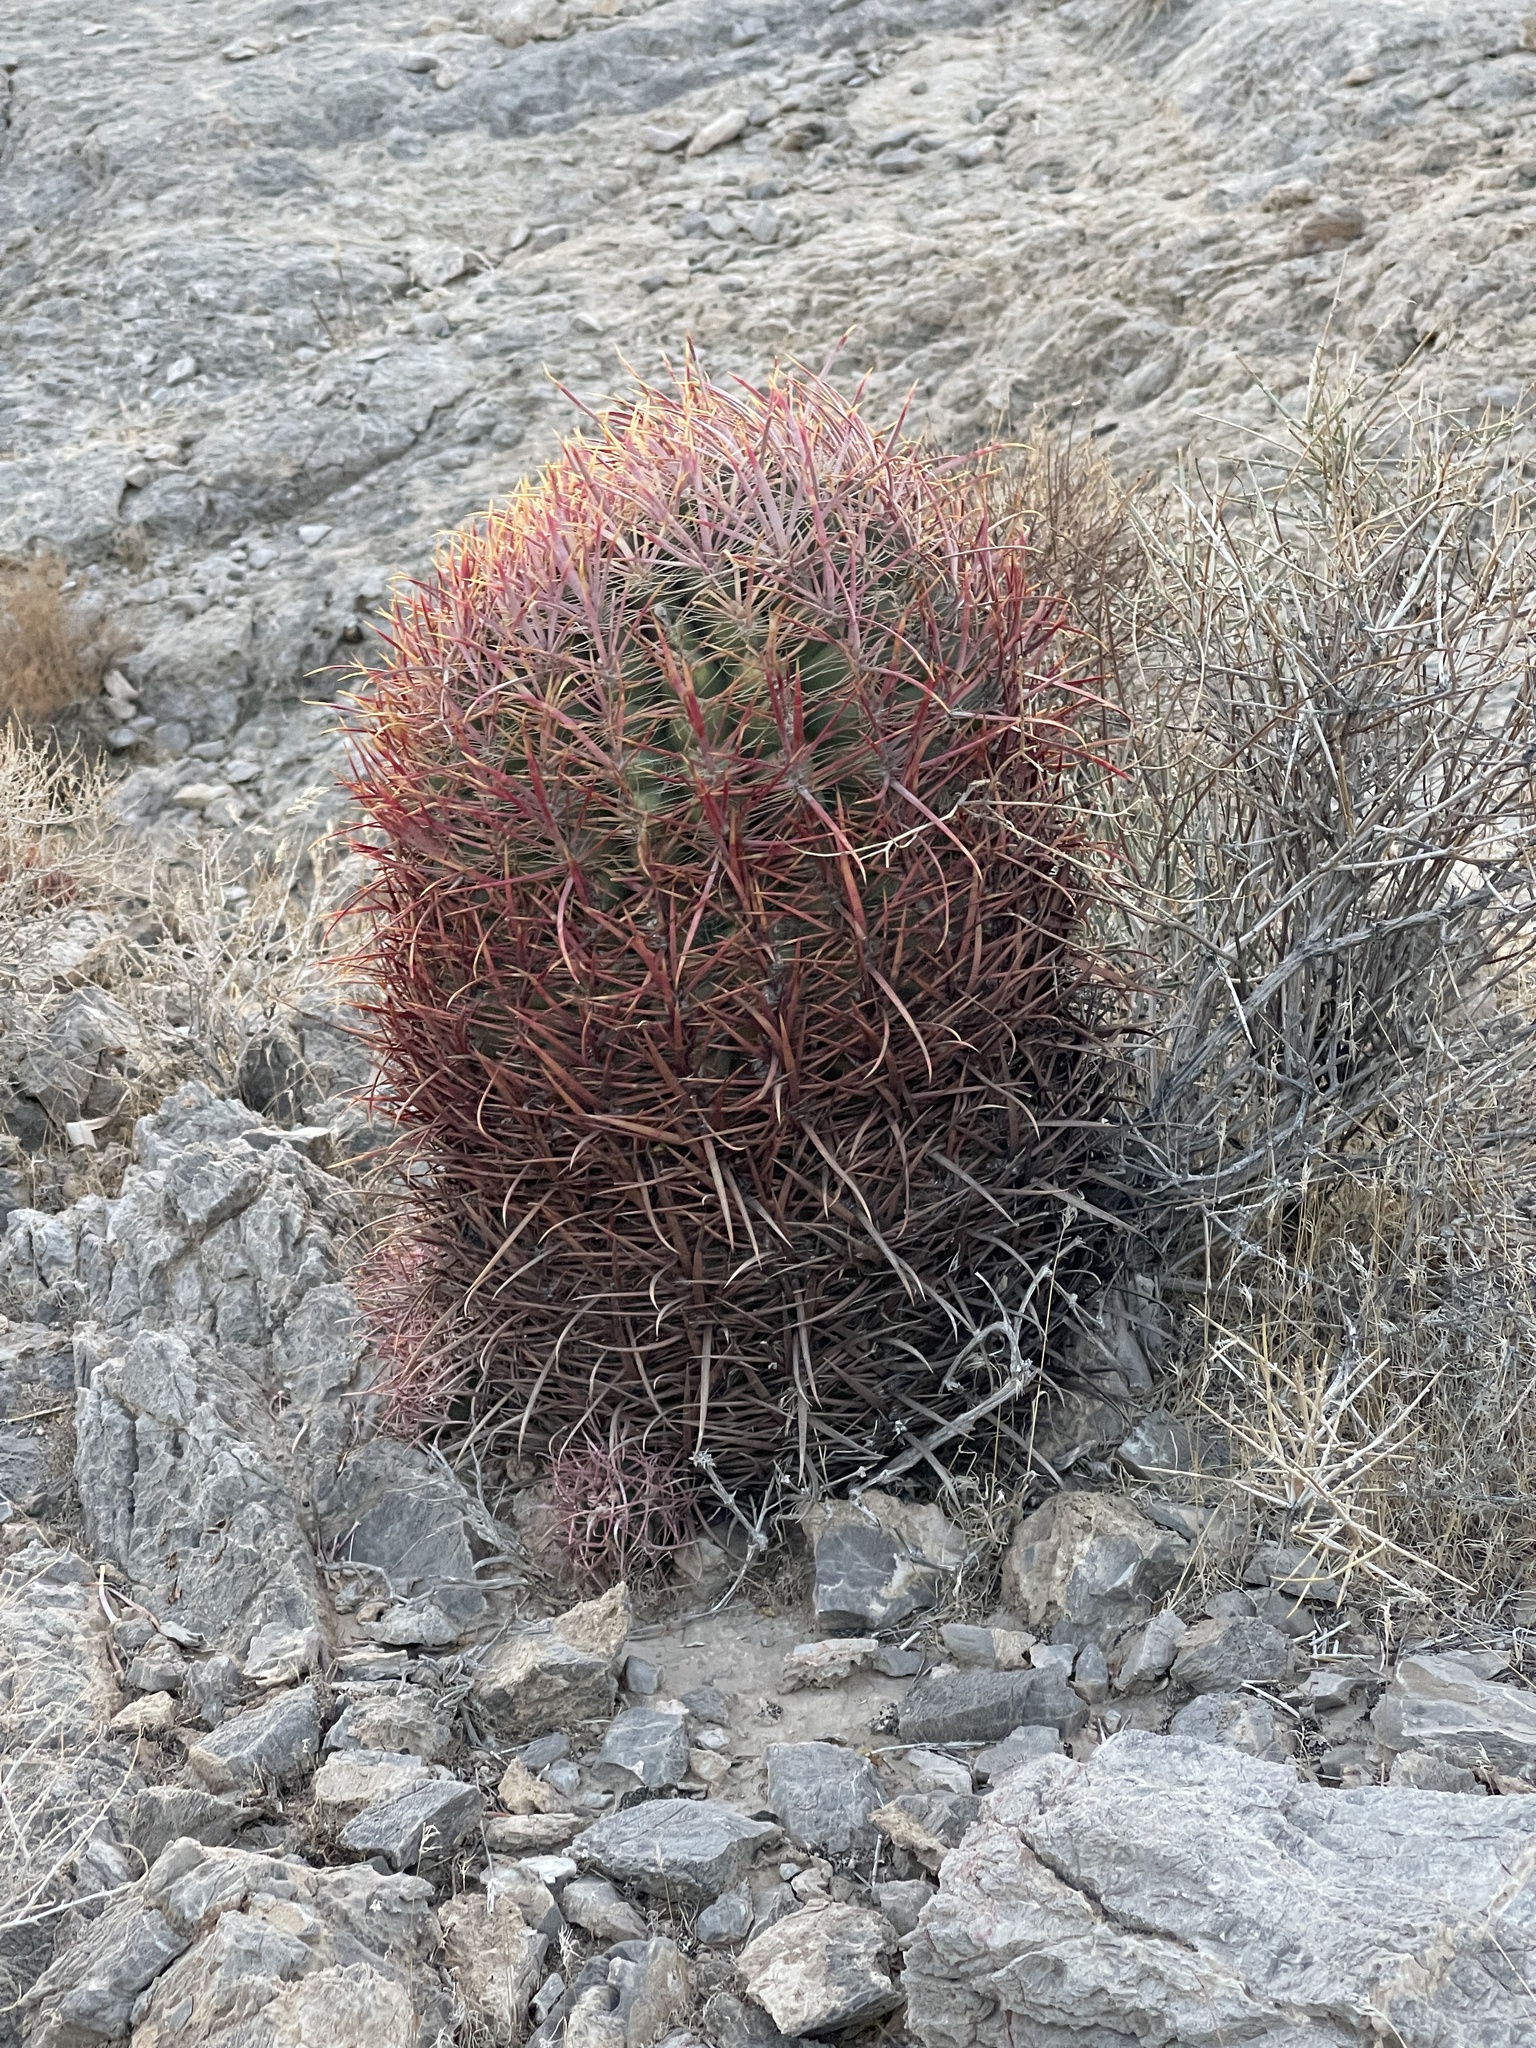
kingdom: Plantae
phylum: Tracheophyta
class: Magnoliopsida
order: Caryophyllales
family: Cactaceae
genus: Ferocactus
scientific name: Ferocactus cylindraceus
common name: California barrel cactus
